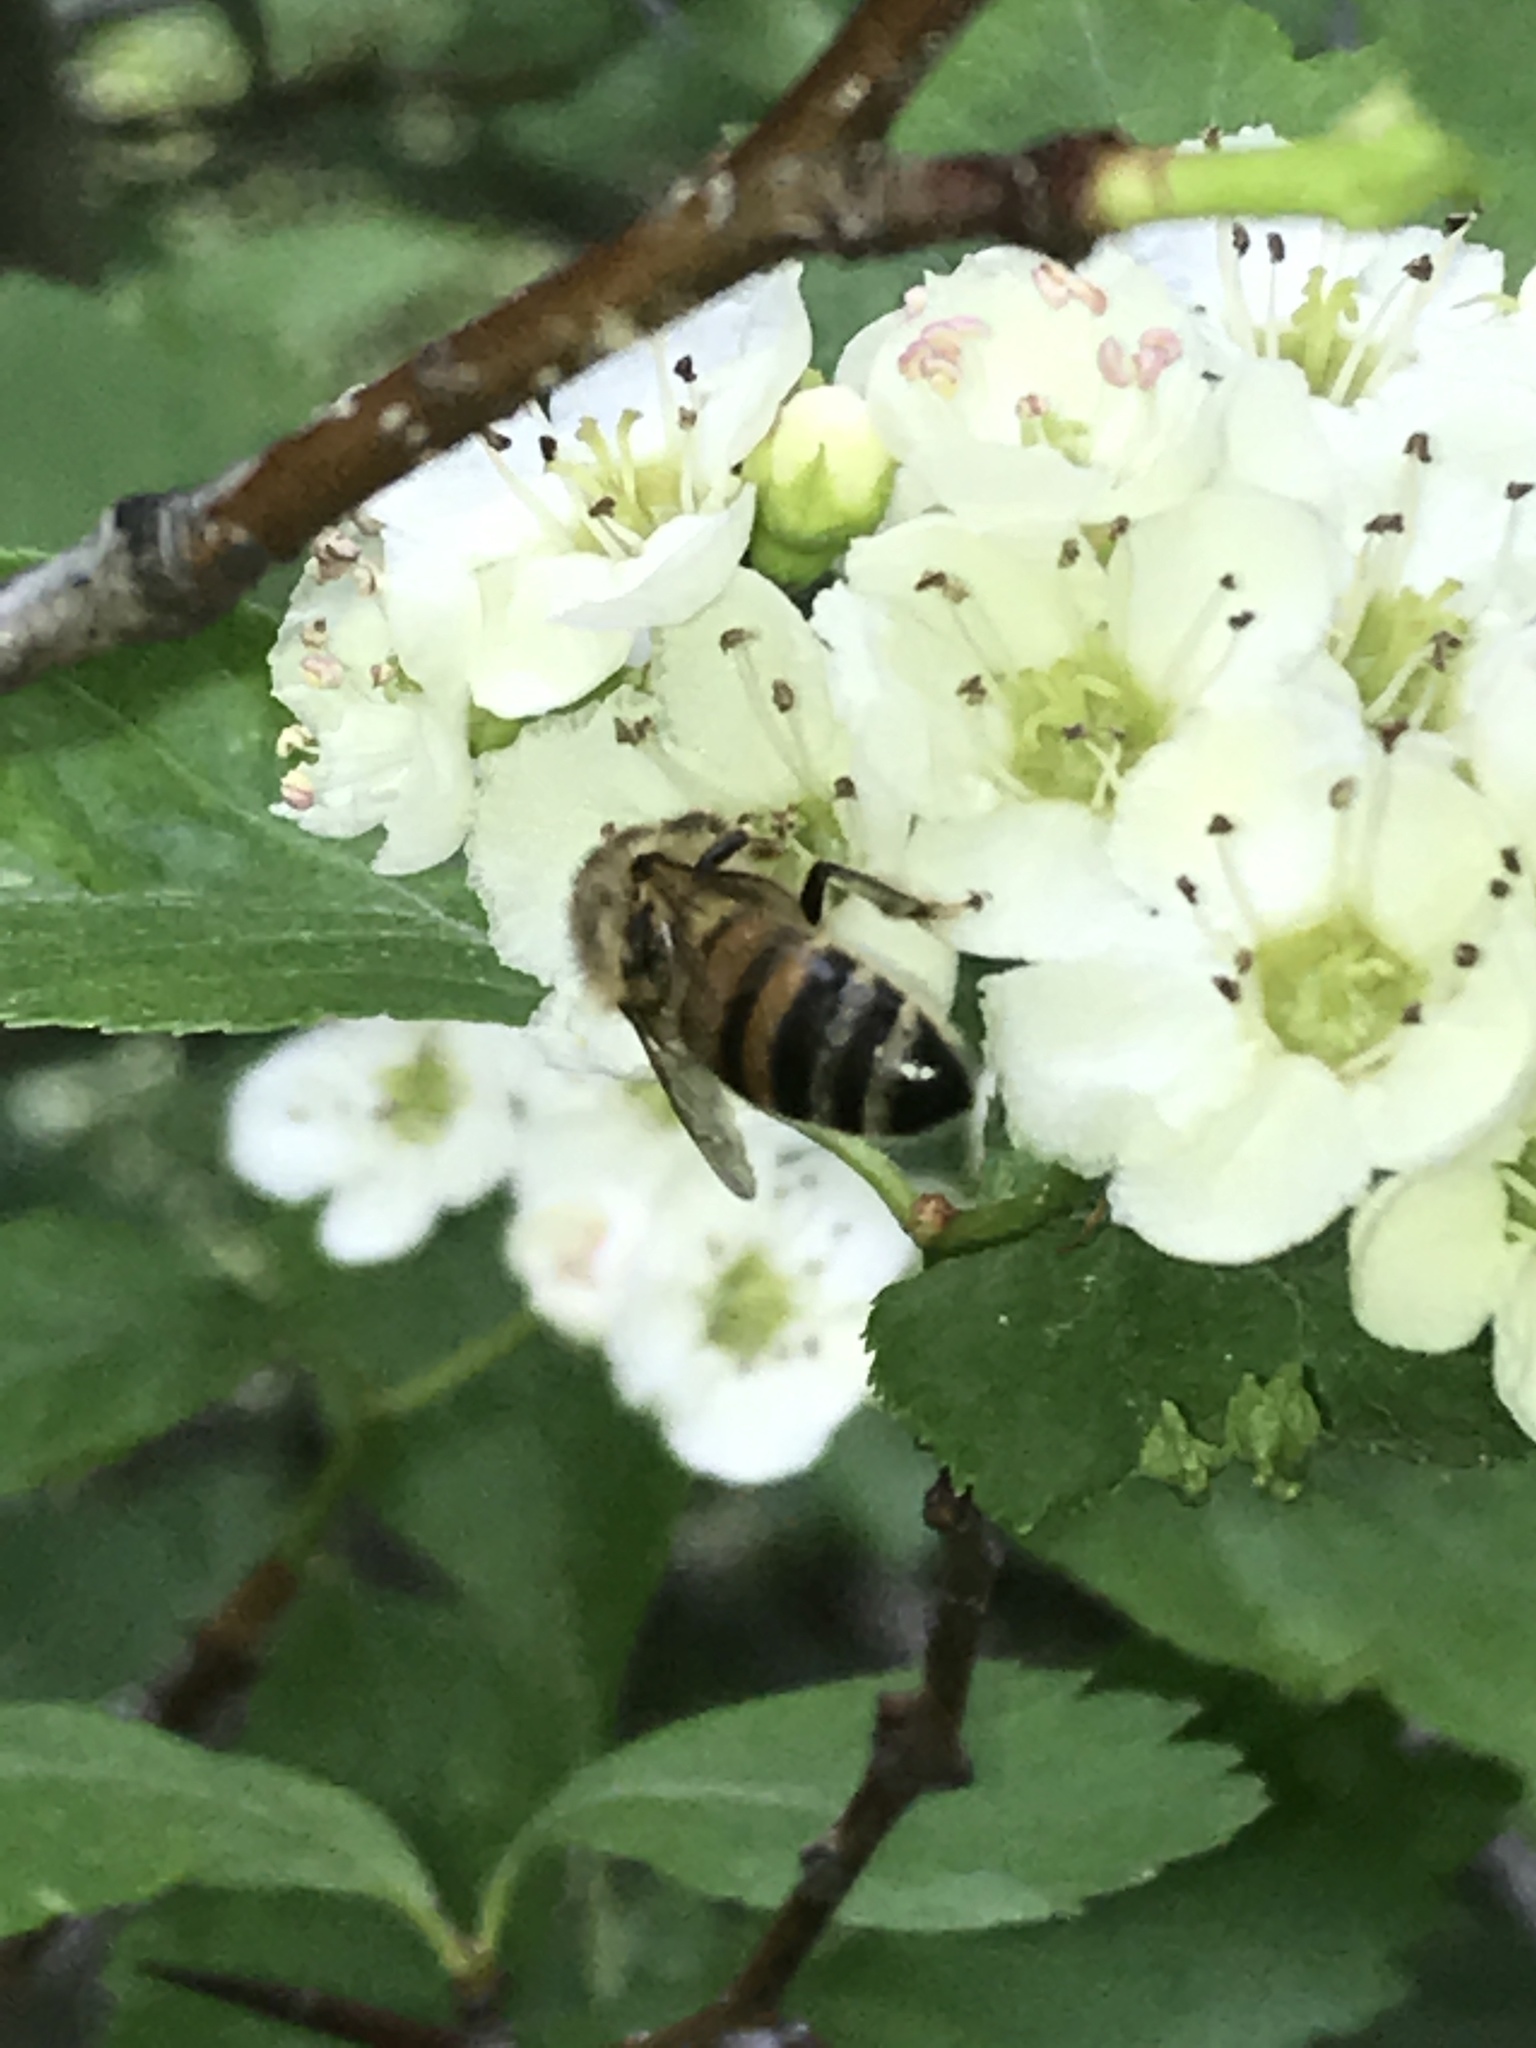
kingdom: Animalia
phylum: Arthropoda
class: Insecta
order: Hymenoptera
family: Apidae
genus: Apis
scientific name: Apis mellifera
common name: Honey bee
